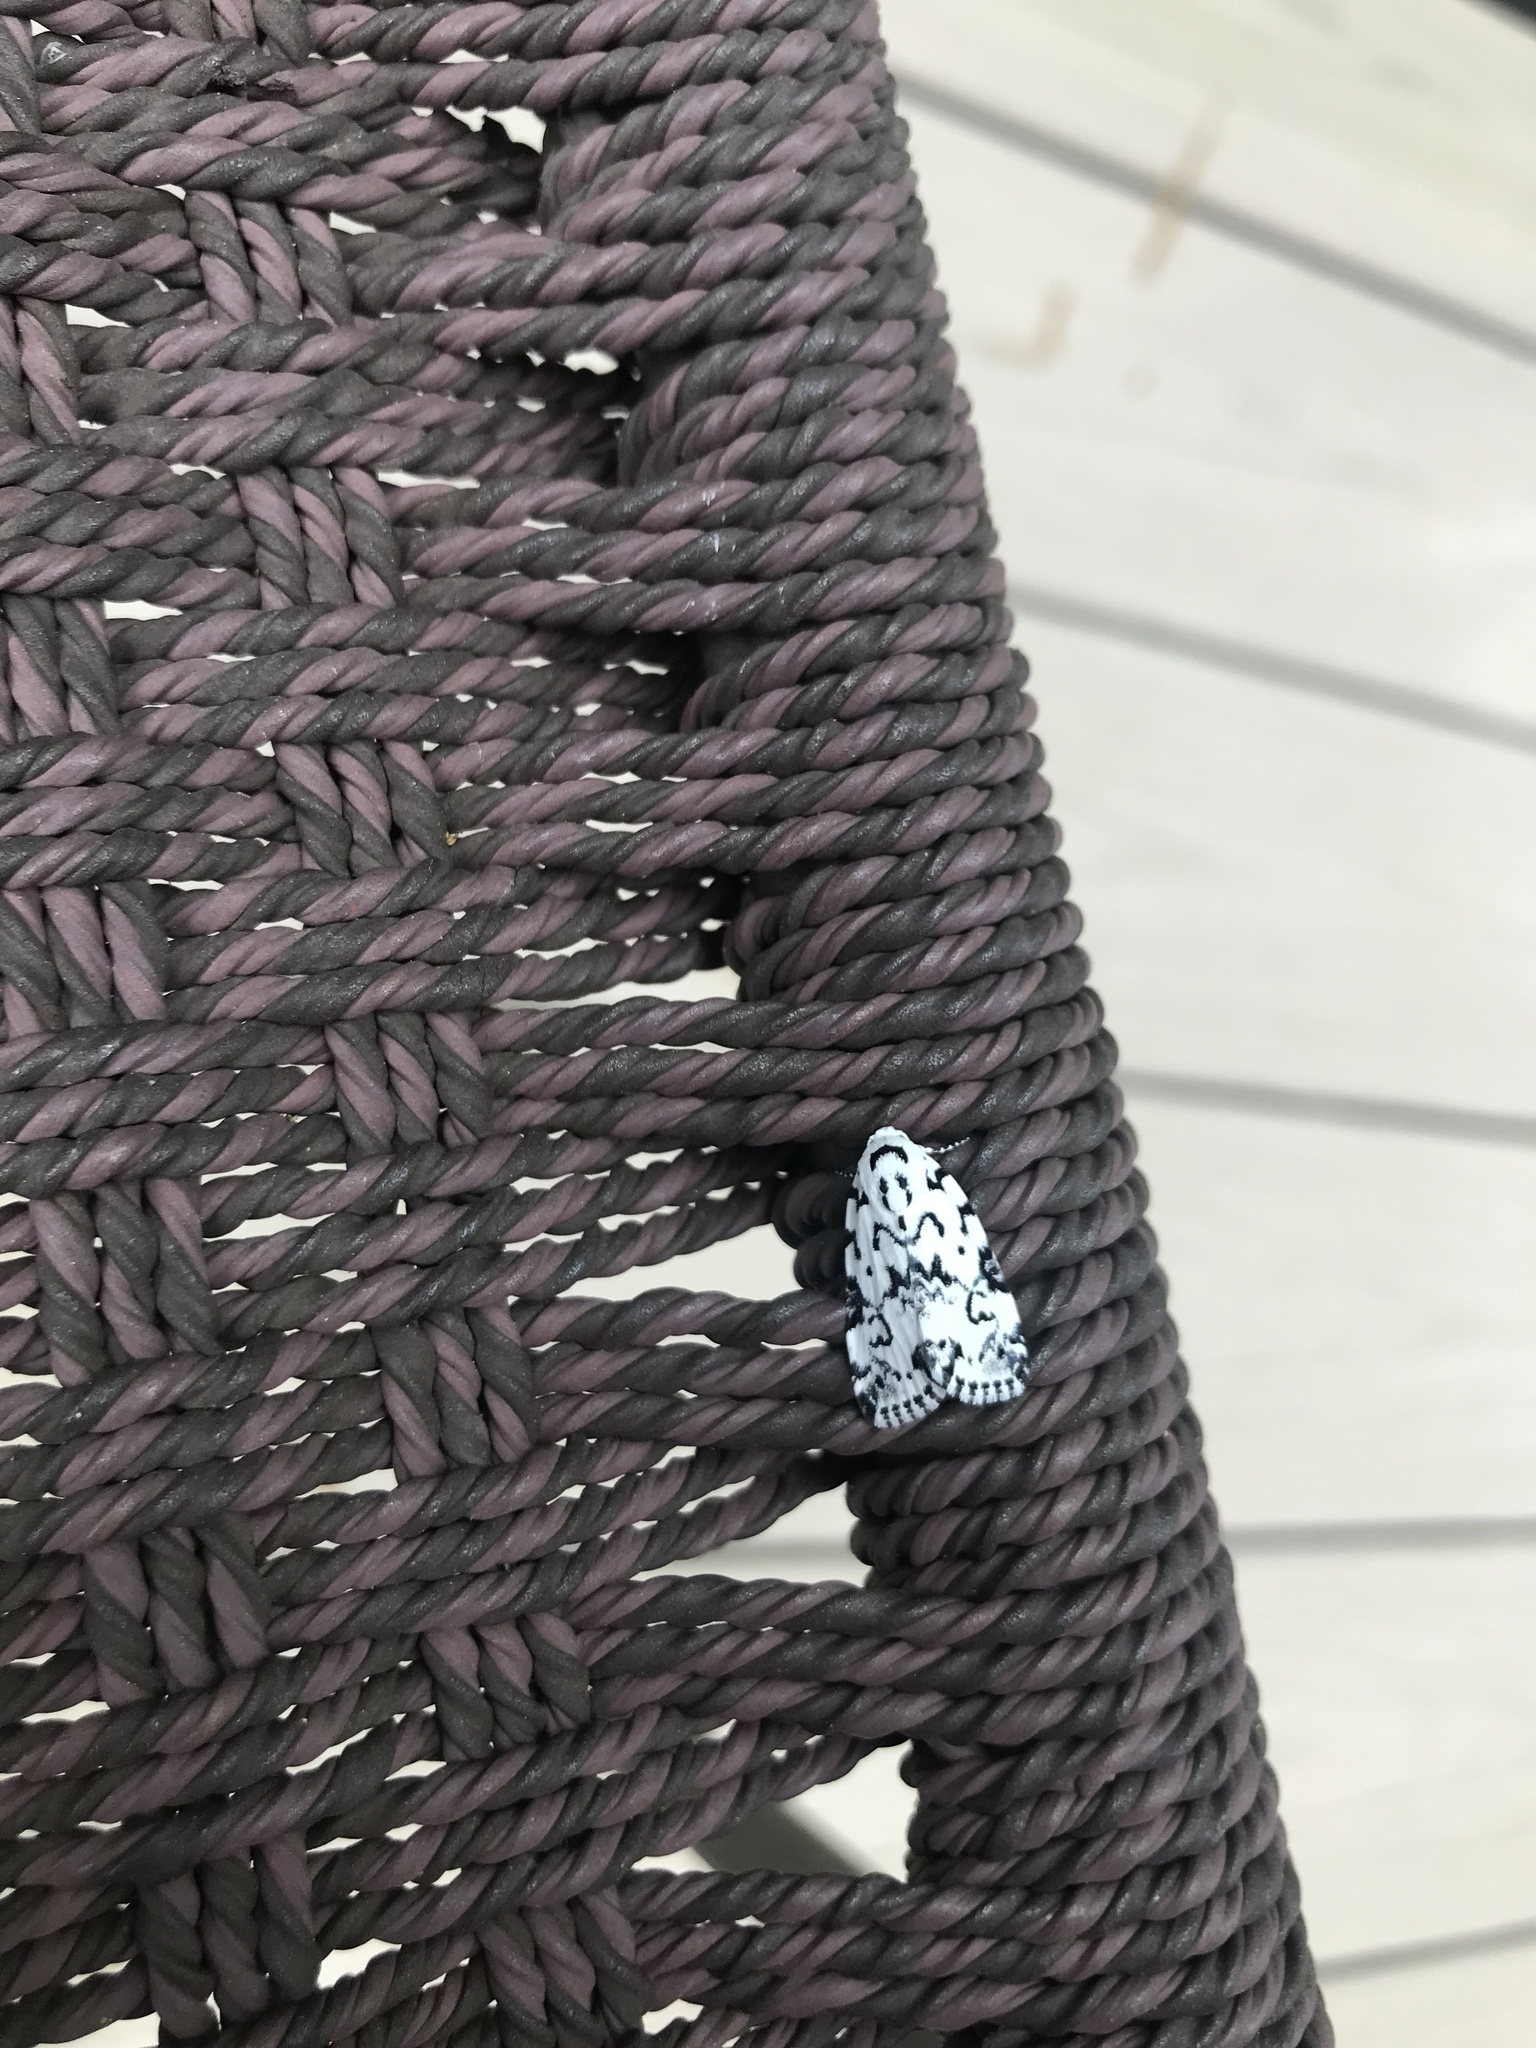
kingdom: Animalia
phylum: Arthropoda
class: Insecta
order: Lepidoptera
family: Noctuidae
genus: Polygrammate
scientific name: Polygrammate hebraeicum
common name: Hebrew moth
